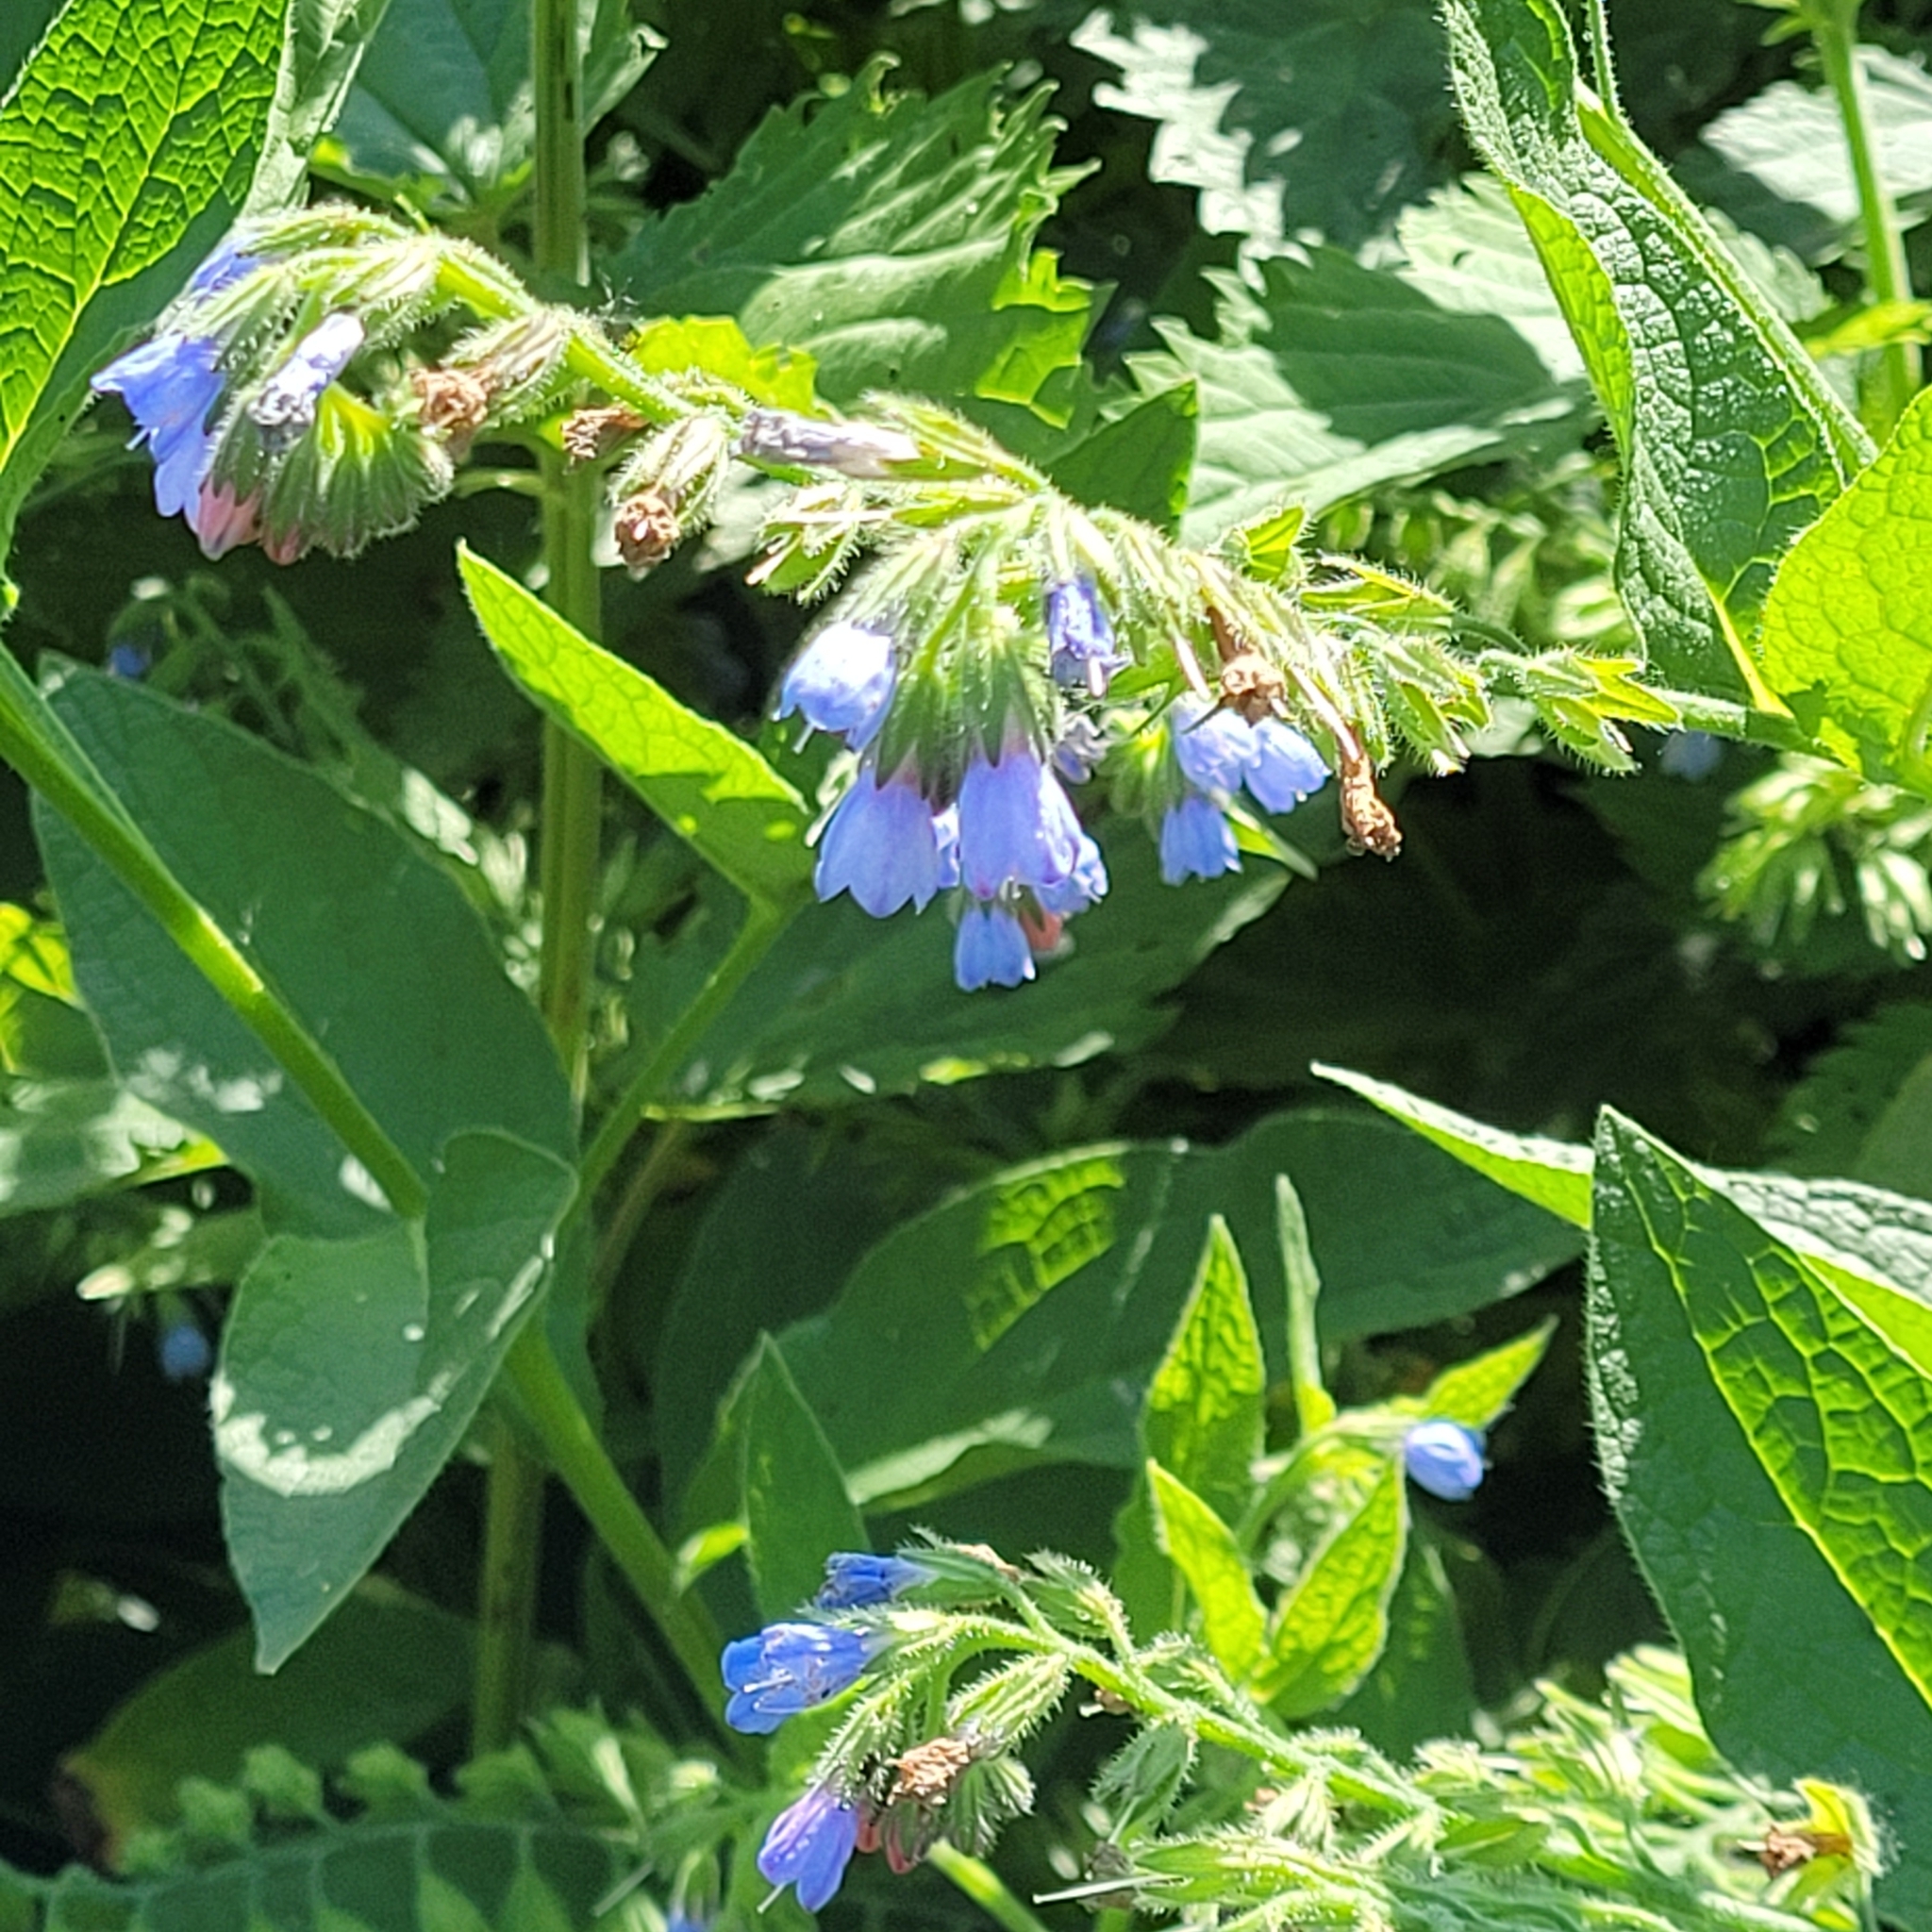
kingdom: Plantae
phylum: Tracheophyta
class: Magnoliopsida
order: Boraginales
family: Boraginaceae
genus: Symphytum
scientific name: Symphytum caucasicum
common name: Caucasian comfrey
